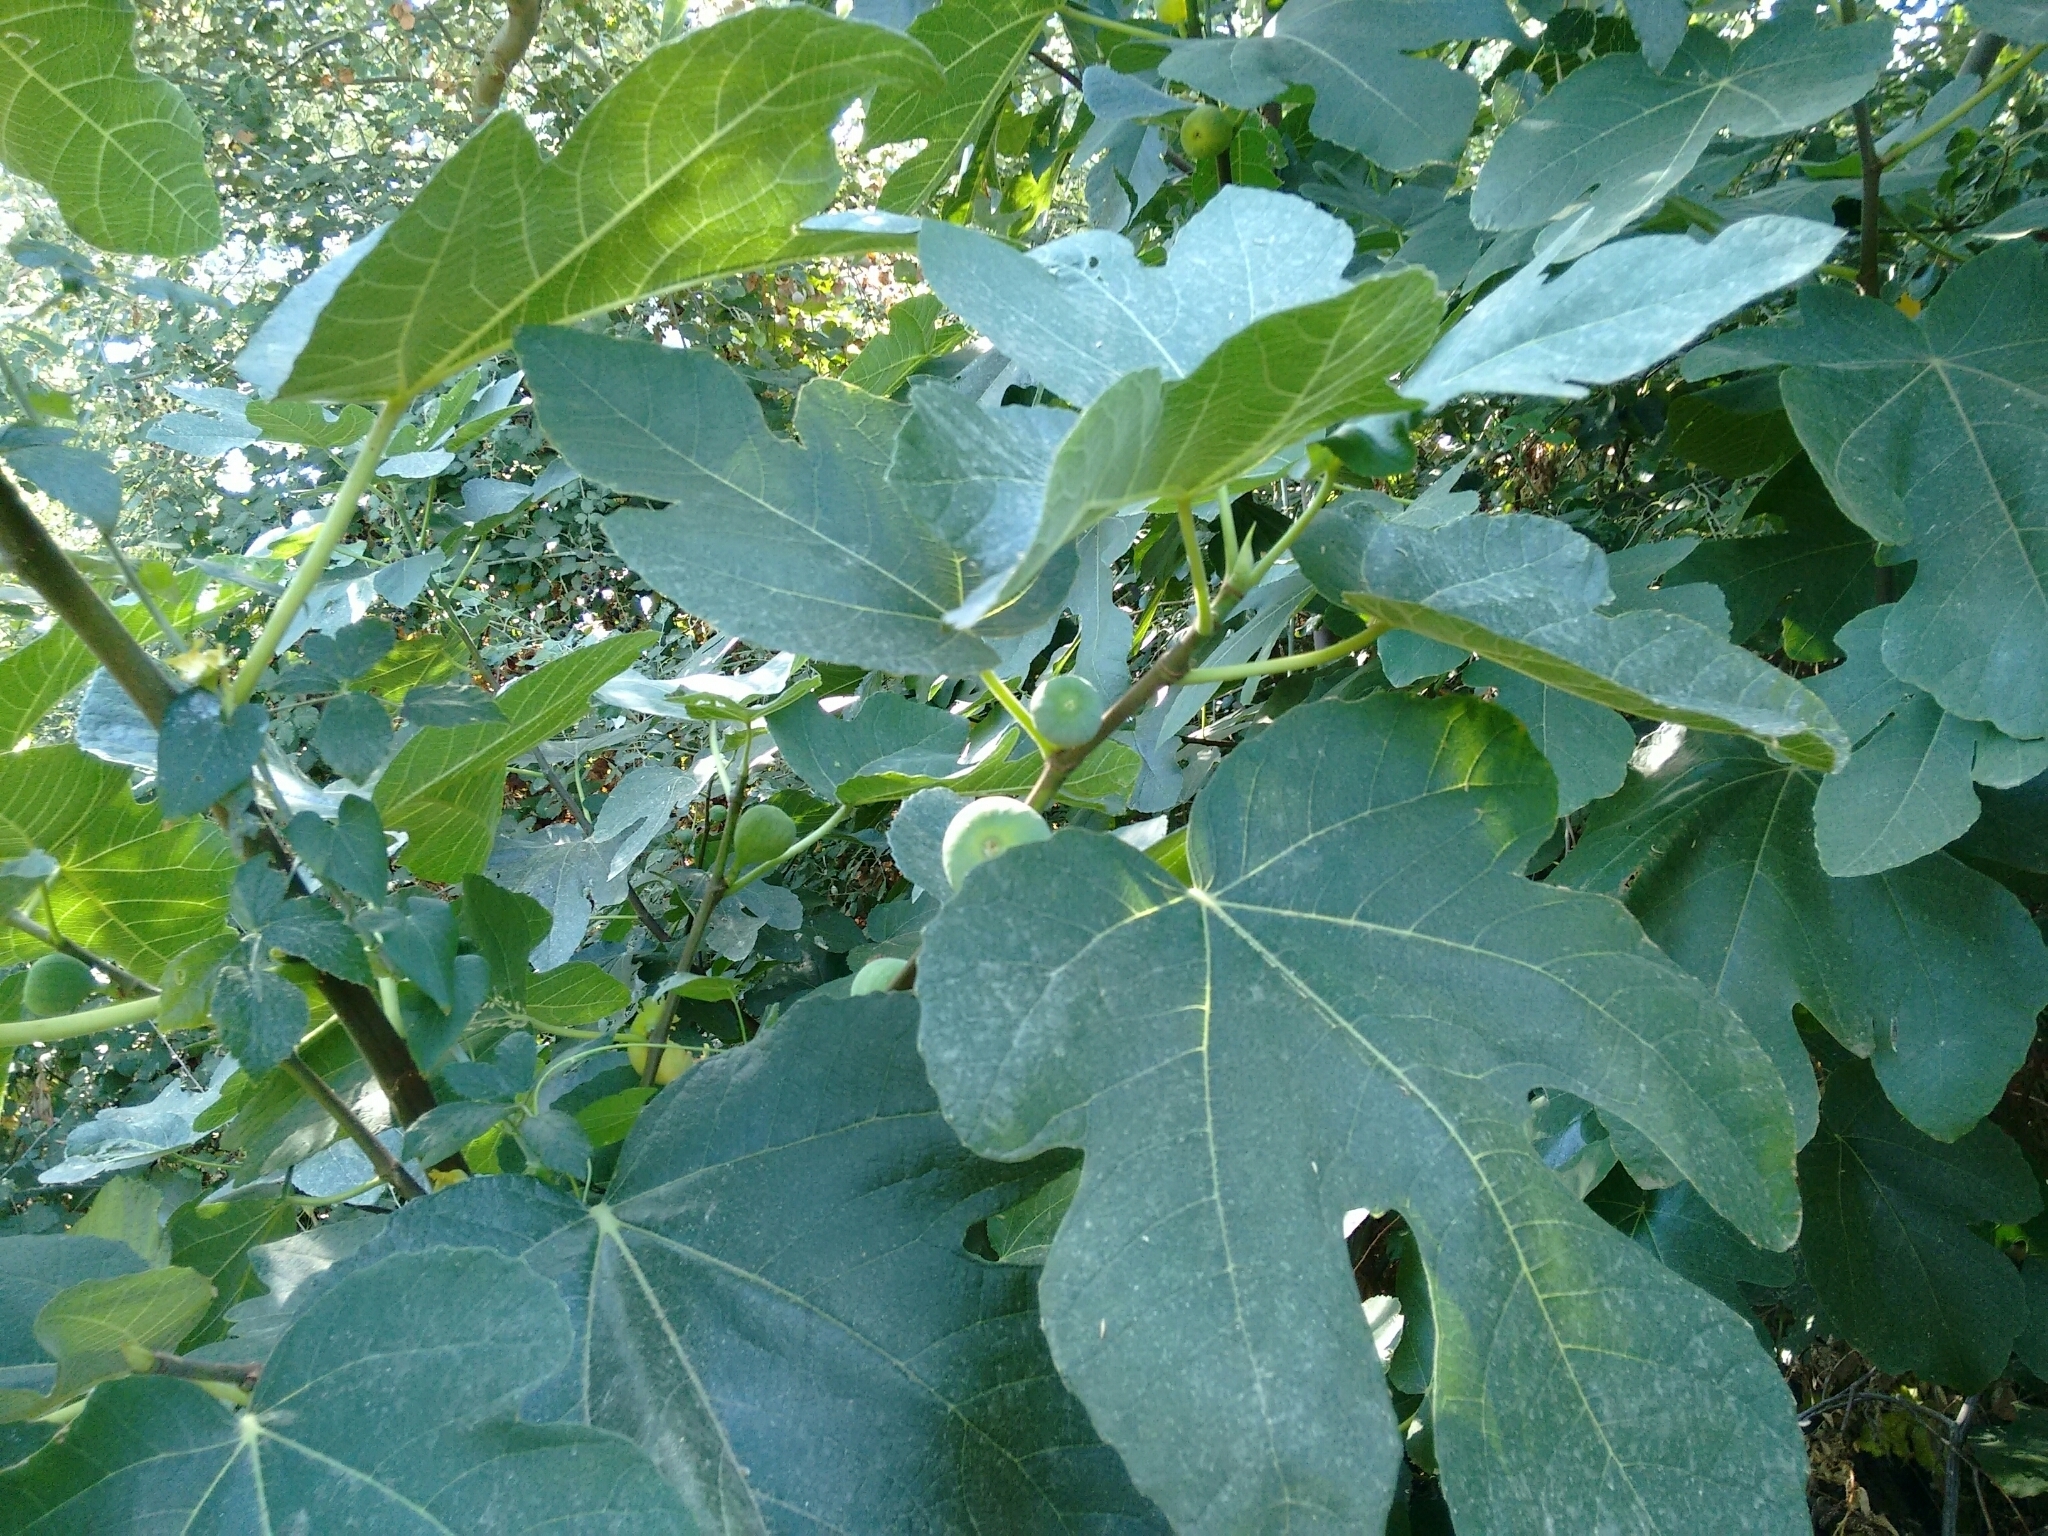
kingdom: Plantae
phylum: Tracheophyta
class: Magnoliopsida
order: Rosales
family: Moraceae
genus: Ficus
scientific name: Ficus carica
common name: Fig
